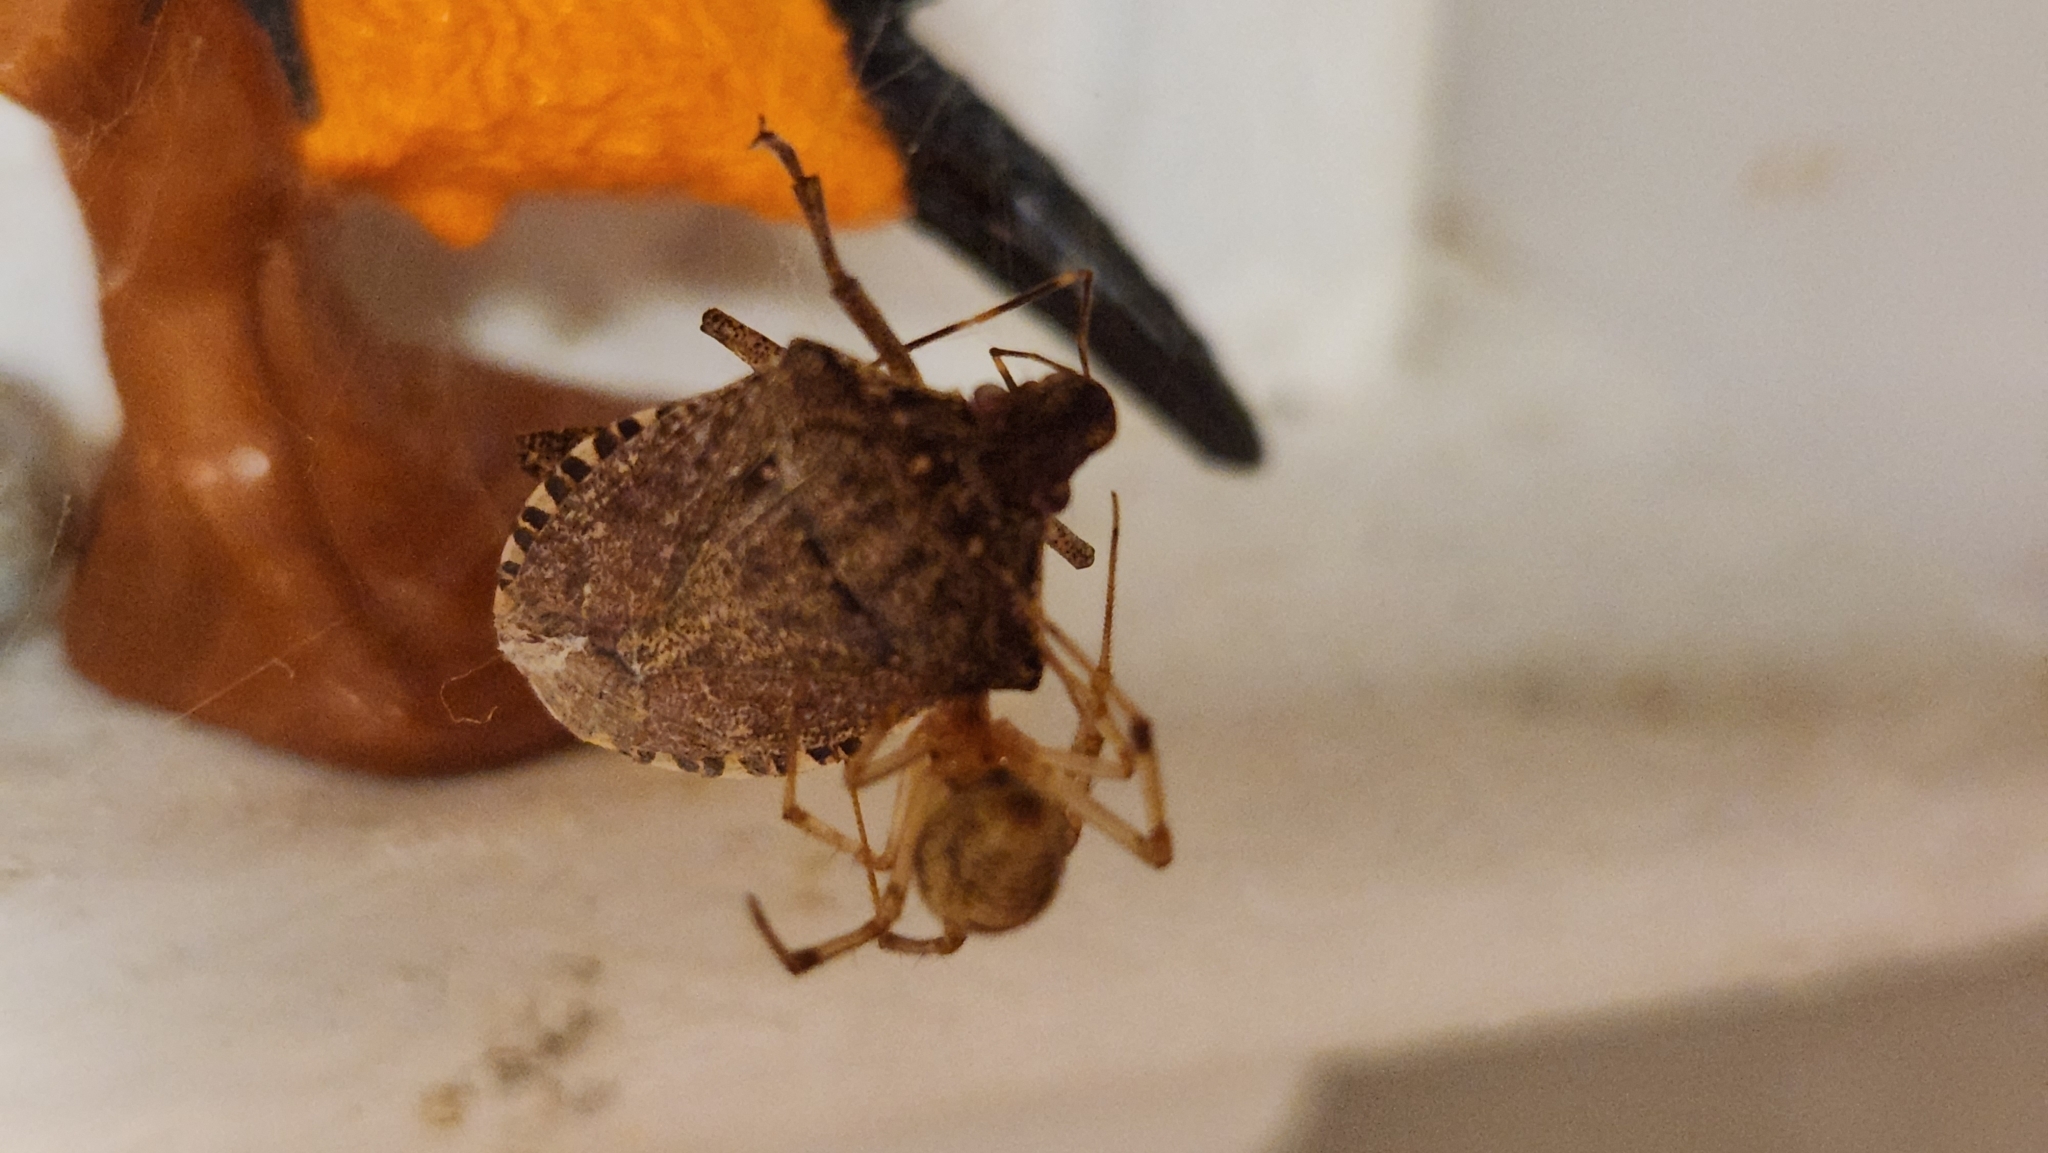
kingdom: Animalia
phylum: Arthropoda
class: Insecta
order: Hemiptera
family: Pentatomidae
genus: Halyomorpha
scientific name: Halyomorpha halys
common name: Brown marmorated stink bug
